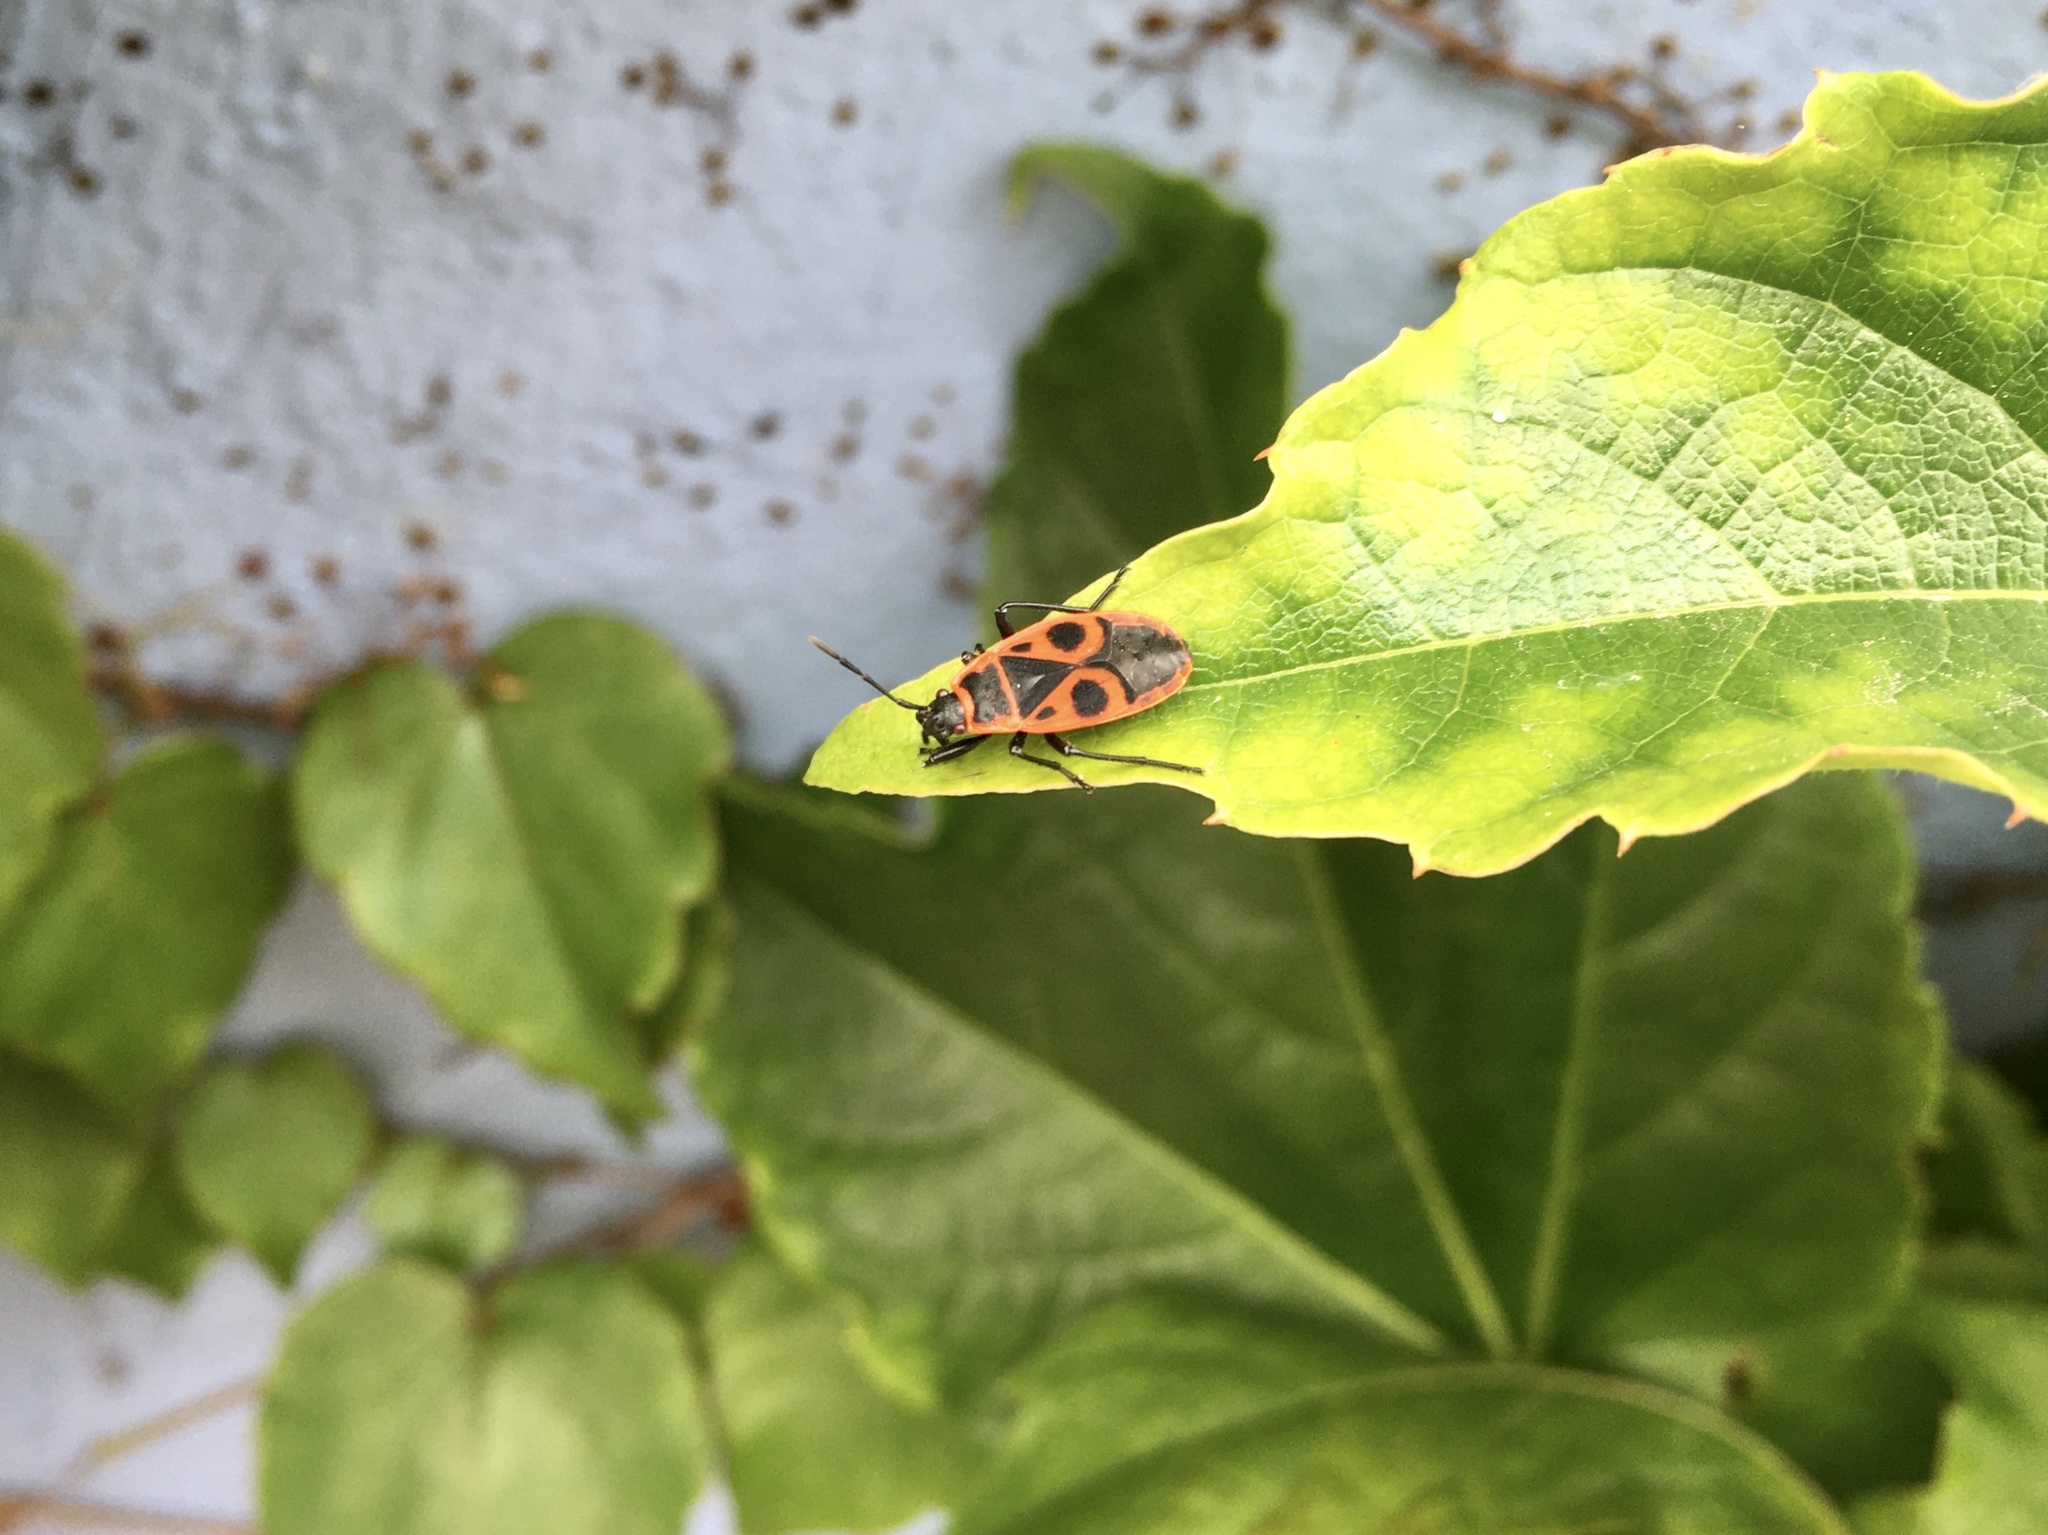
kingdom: Animalia
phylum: Arthropoda
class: Insecta
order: Hemiptera
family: Pyrrhocoridae
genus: Pyrrhocoris
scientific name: Pyrrhocoris apterus
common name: Firebug
